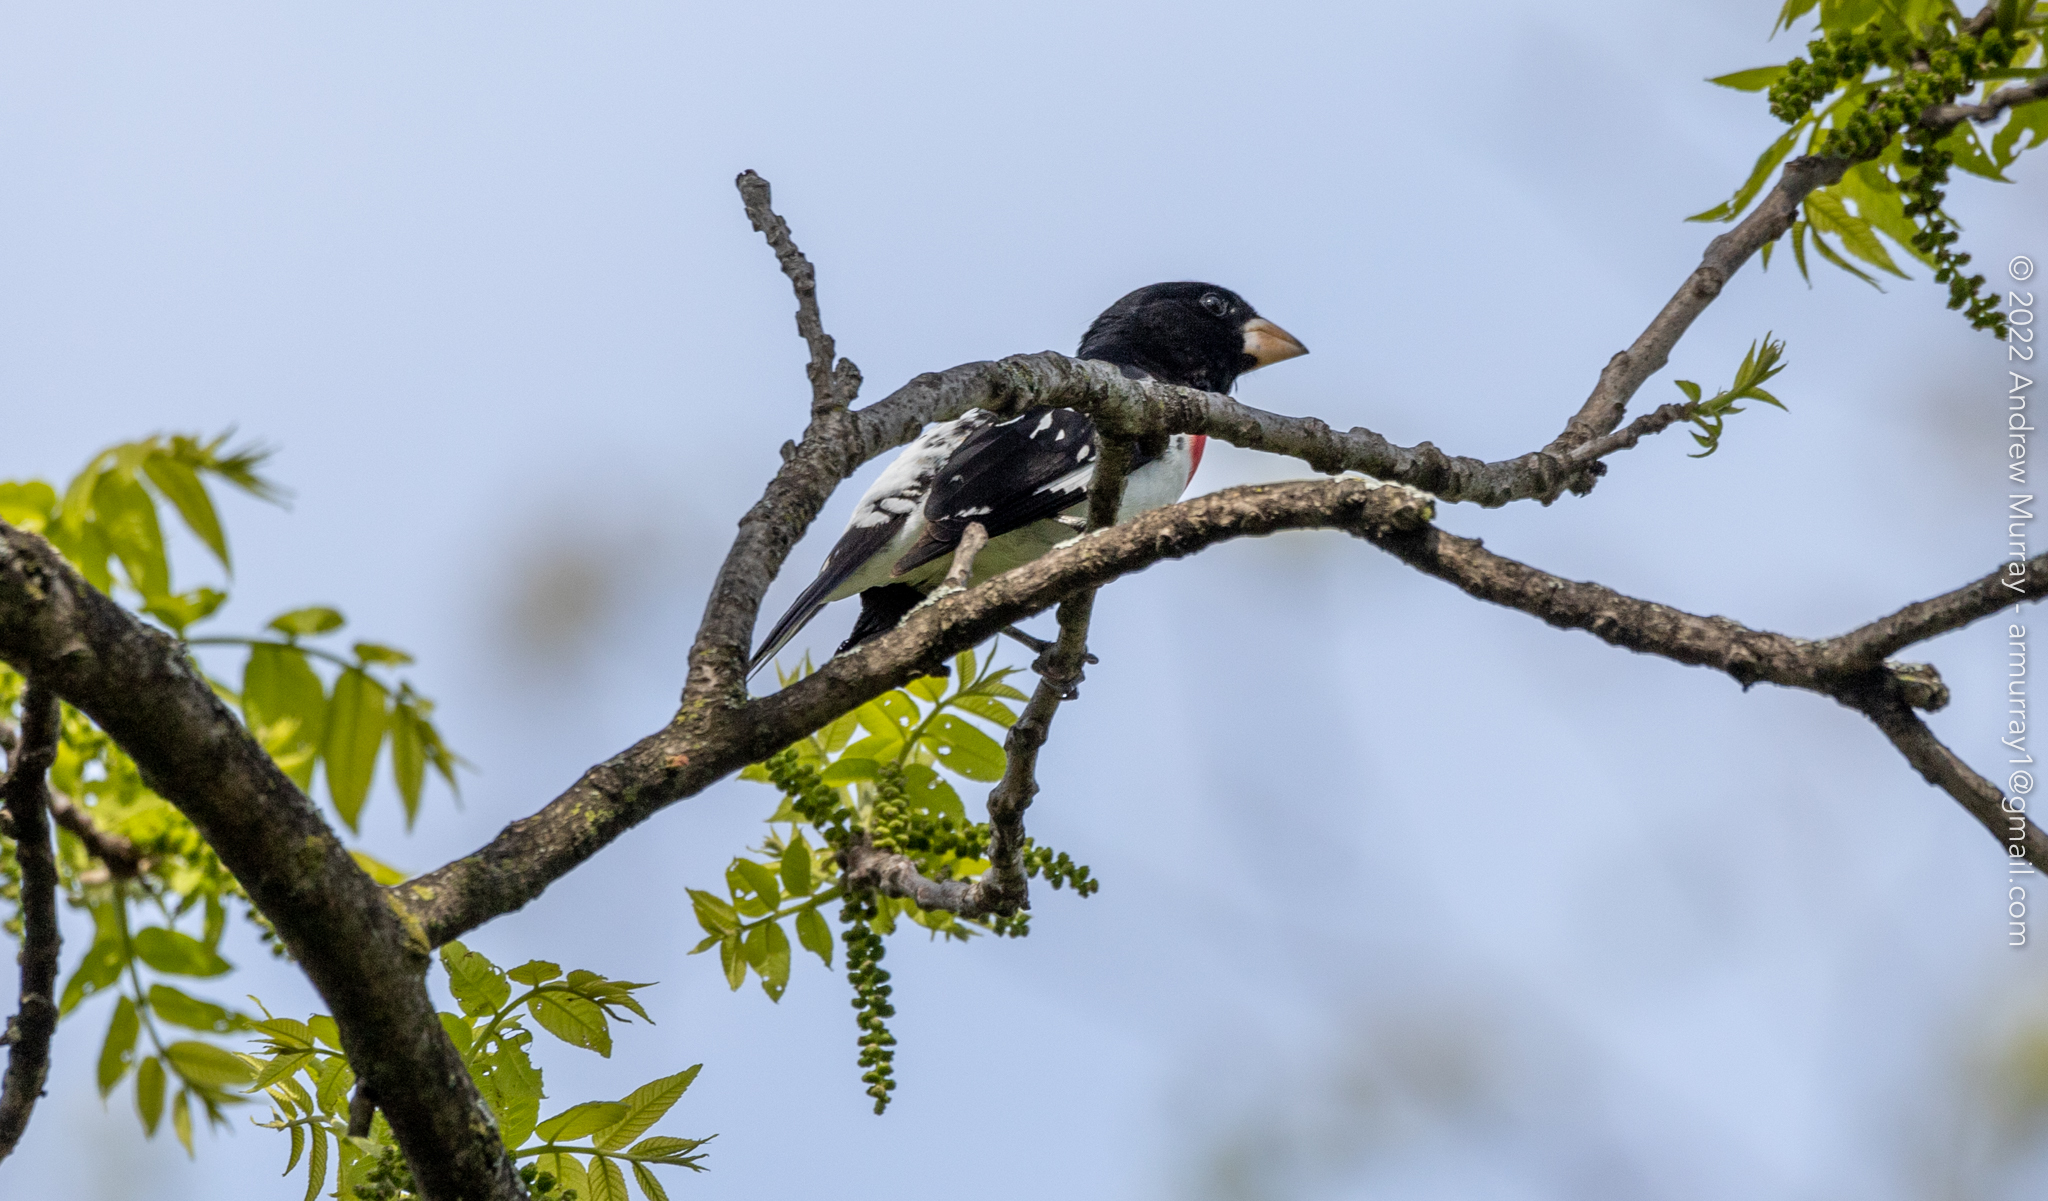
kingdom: Animalia
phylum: Chordata
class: Aves
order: Passeriformes
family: Cardinalidae
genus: Pheucticus
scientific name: Pheucticus ludovicianus
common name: Rose-breasted grosbeak
